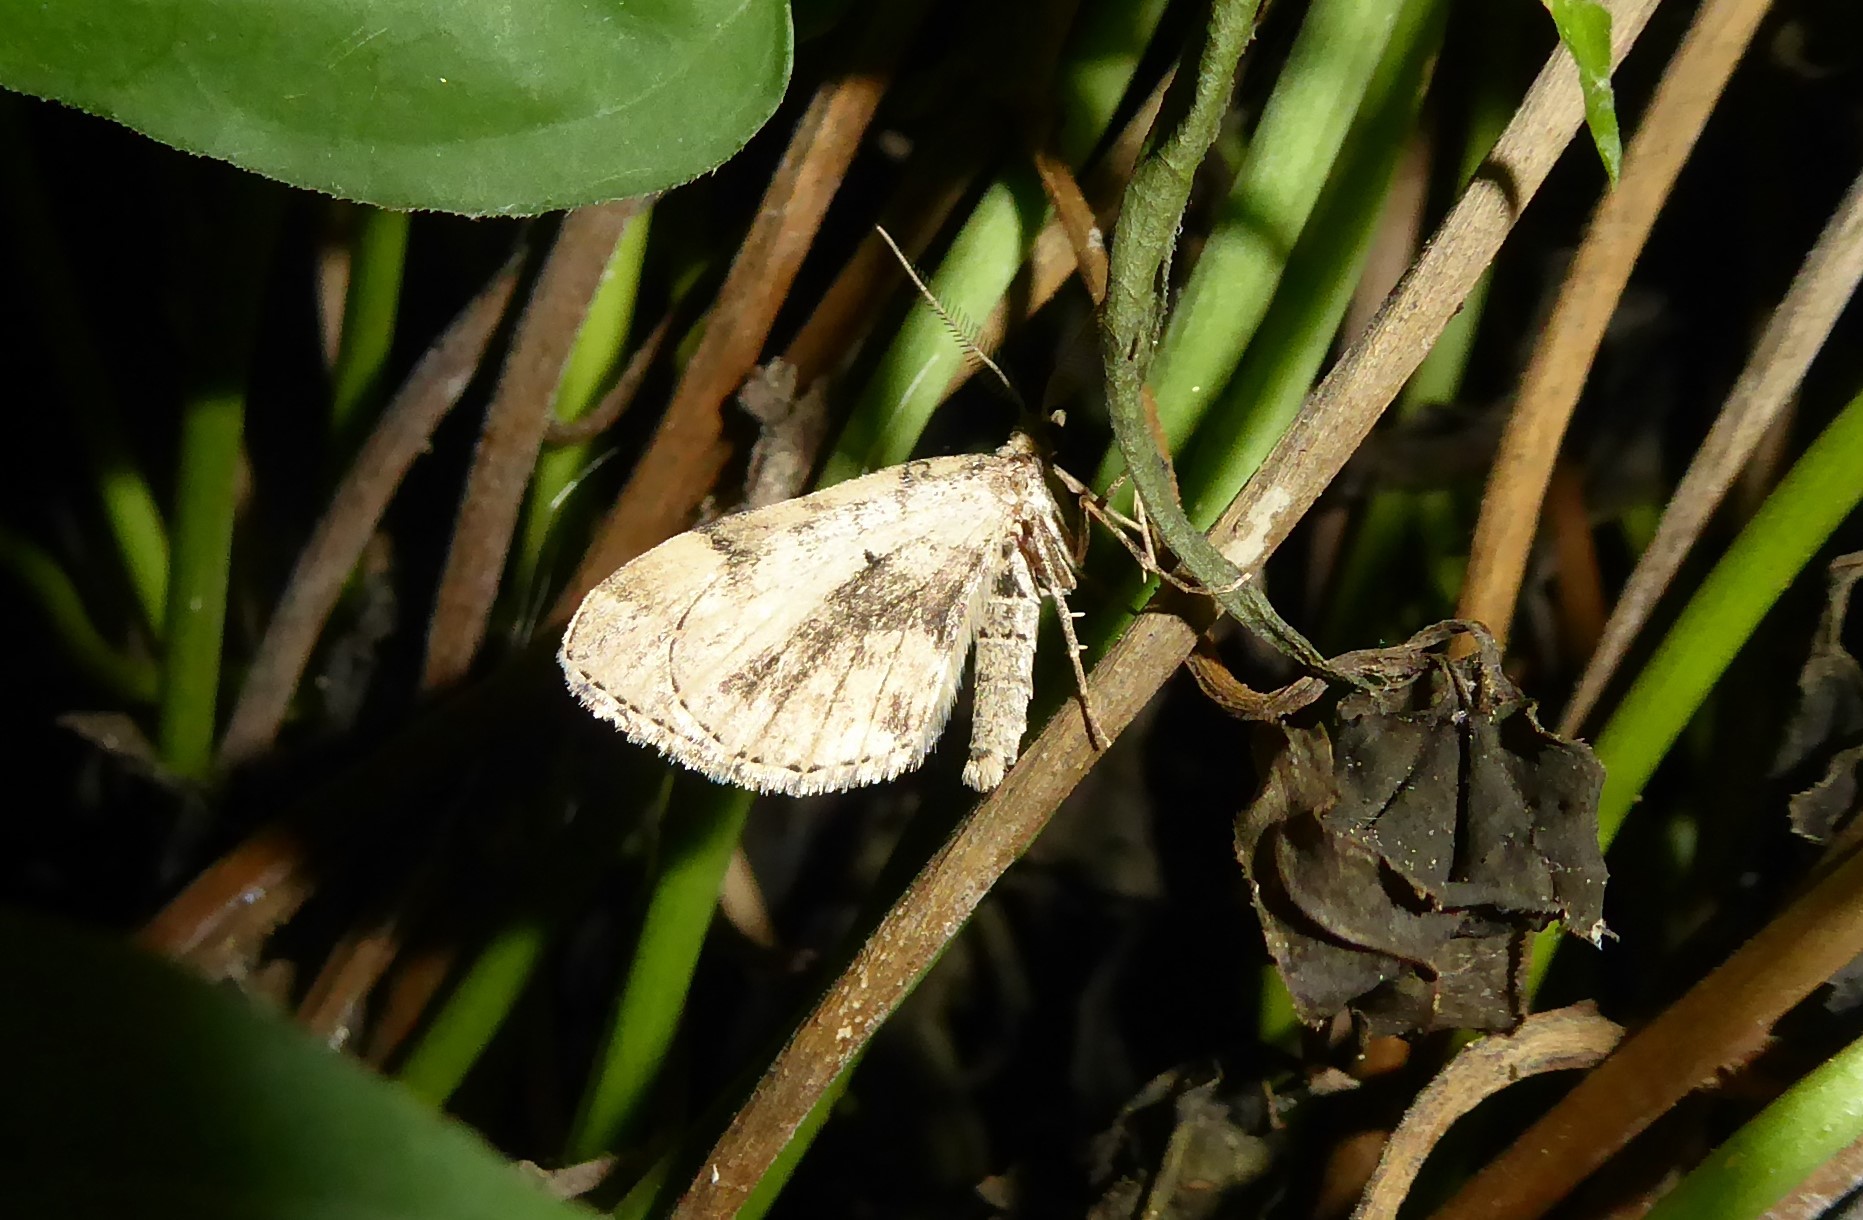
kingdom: Animalia
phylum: Arthropoda
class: Insecta
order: Lepidoptera
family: Geometridae
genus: Asaphodes
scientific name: Asaphodes aegrota
